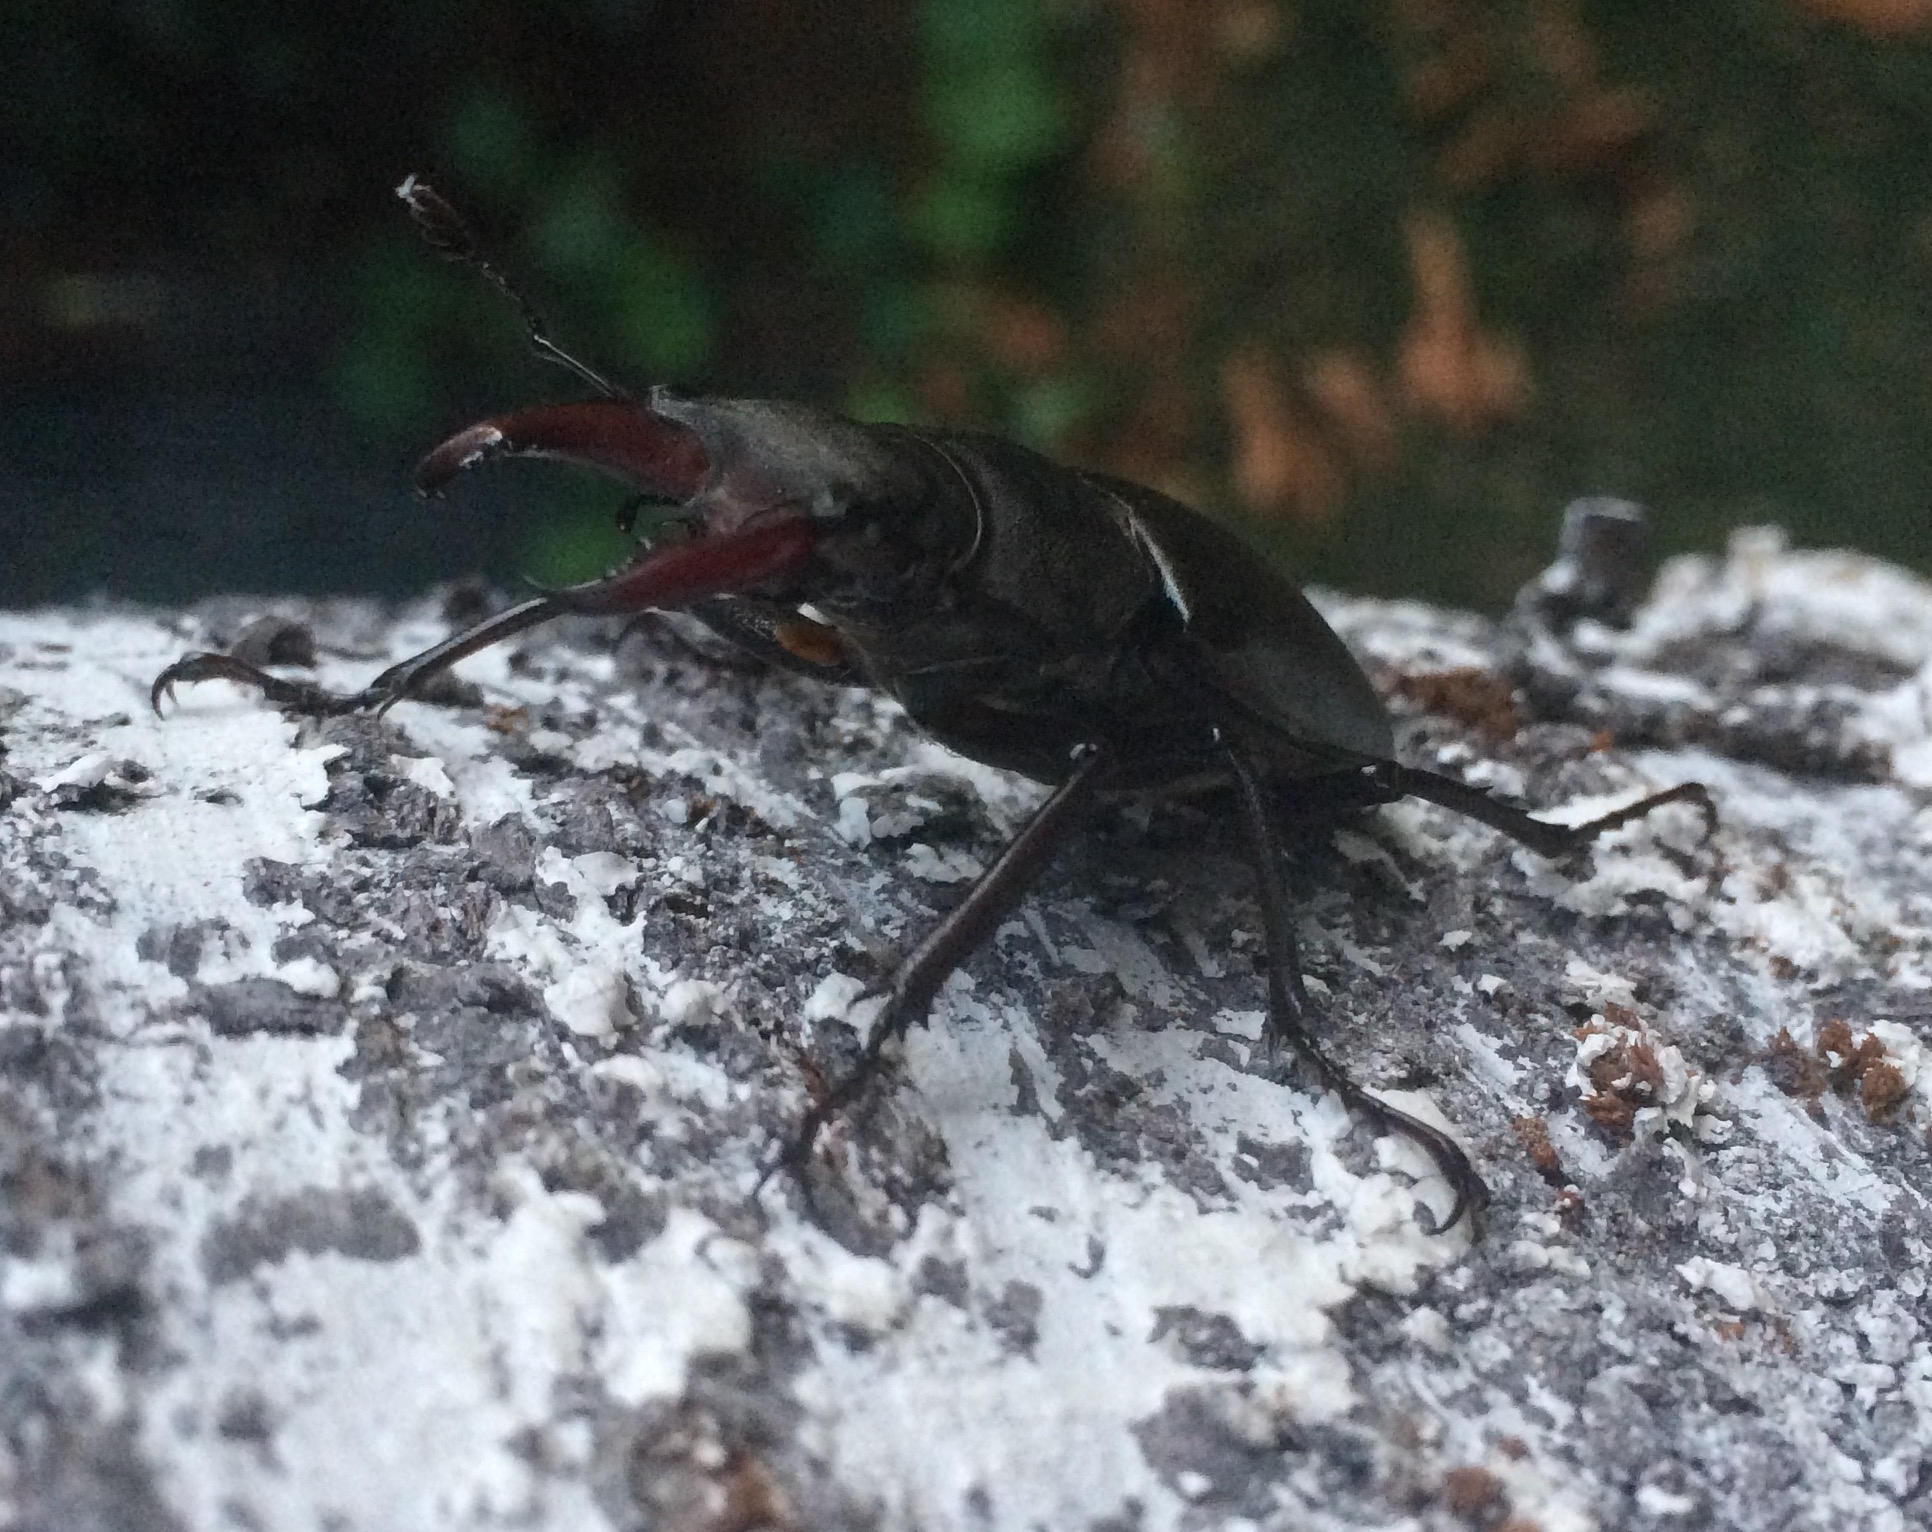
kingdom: Animalia
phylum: Arthropoda
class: Insecta
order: Coleoptera
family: Lucanidae
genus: Lucanus
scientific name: Lucanus cervus
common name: Stag beetle
